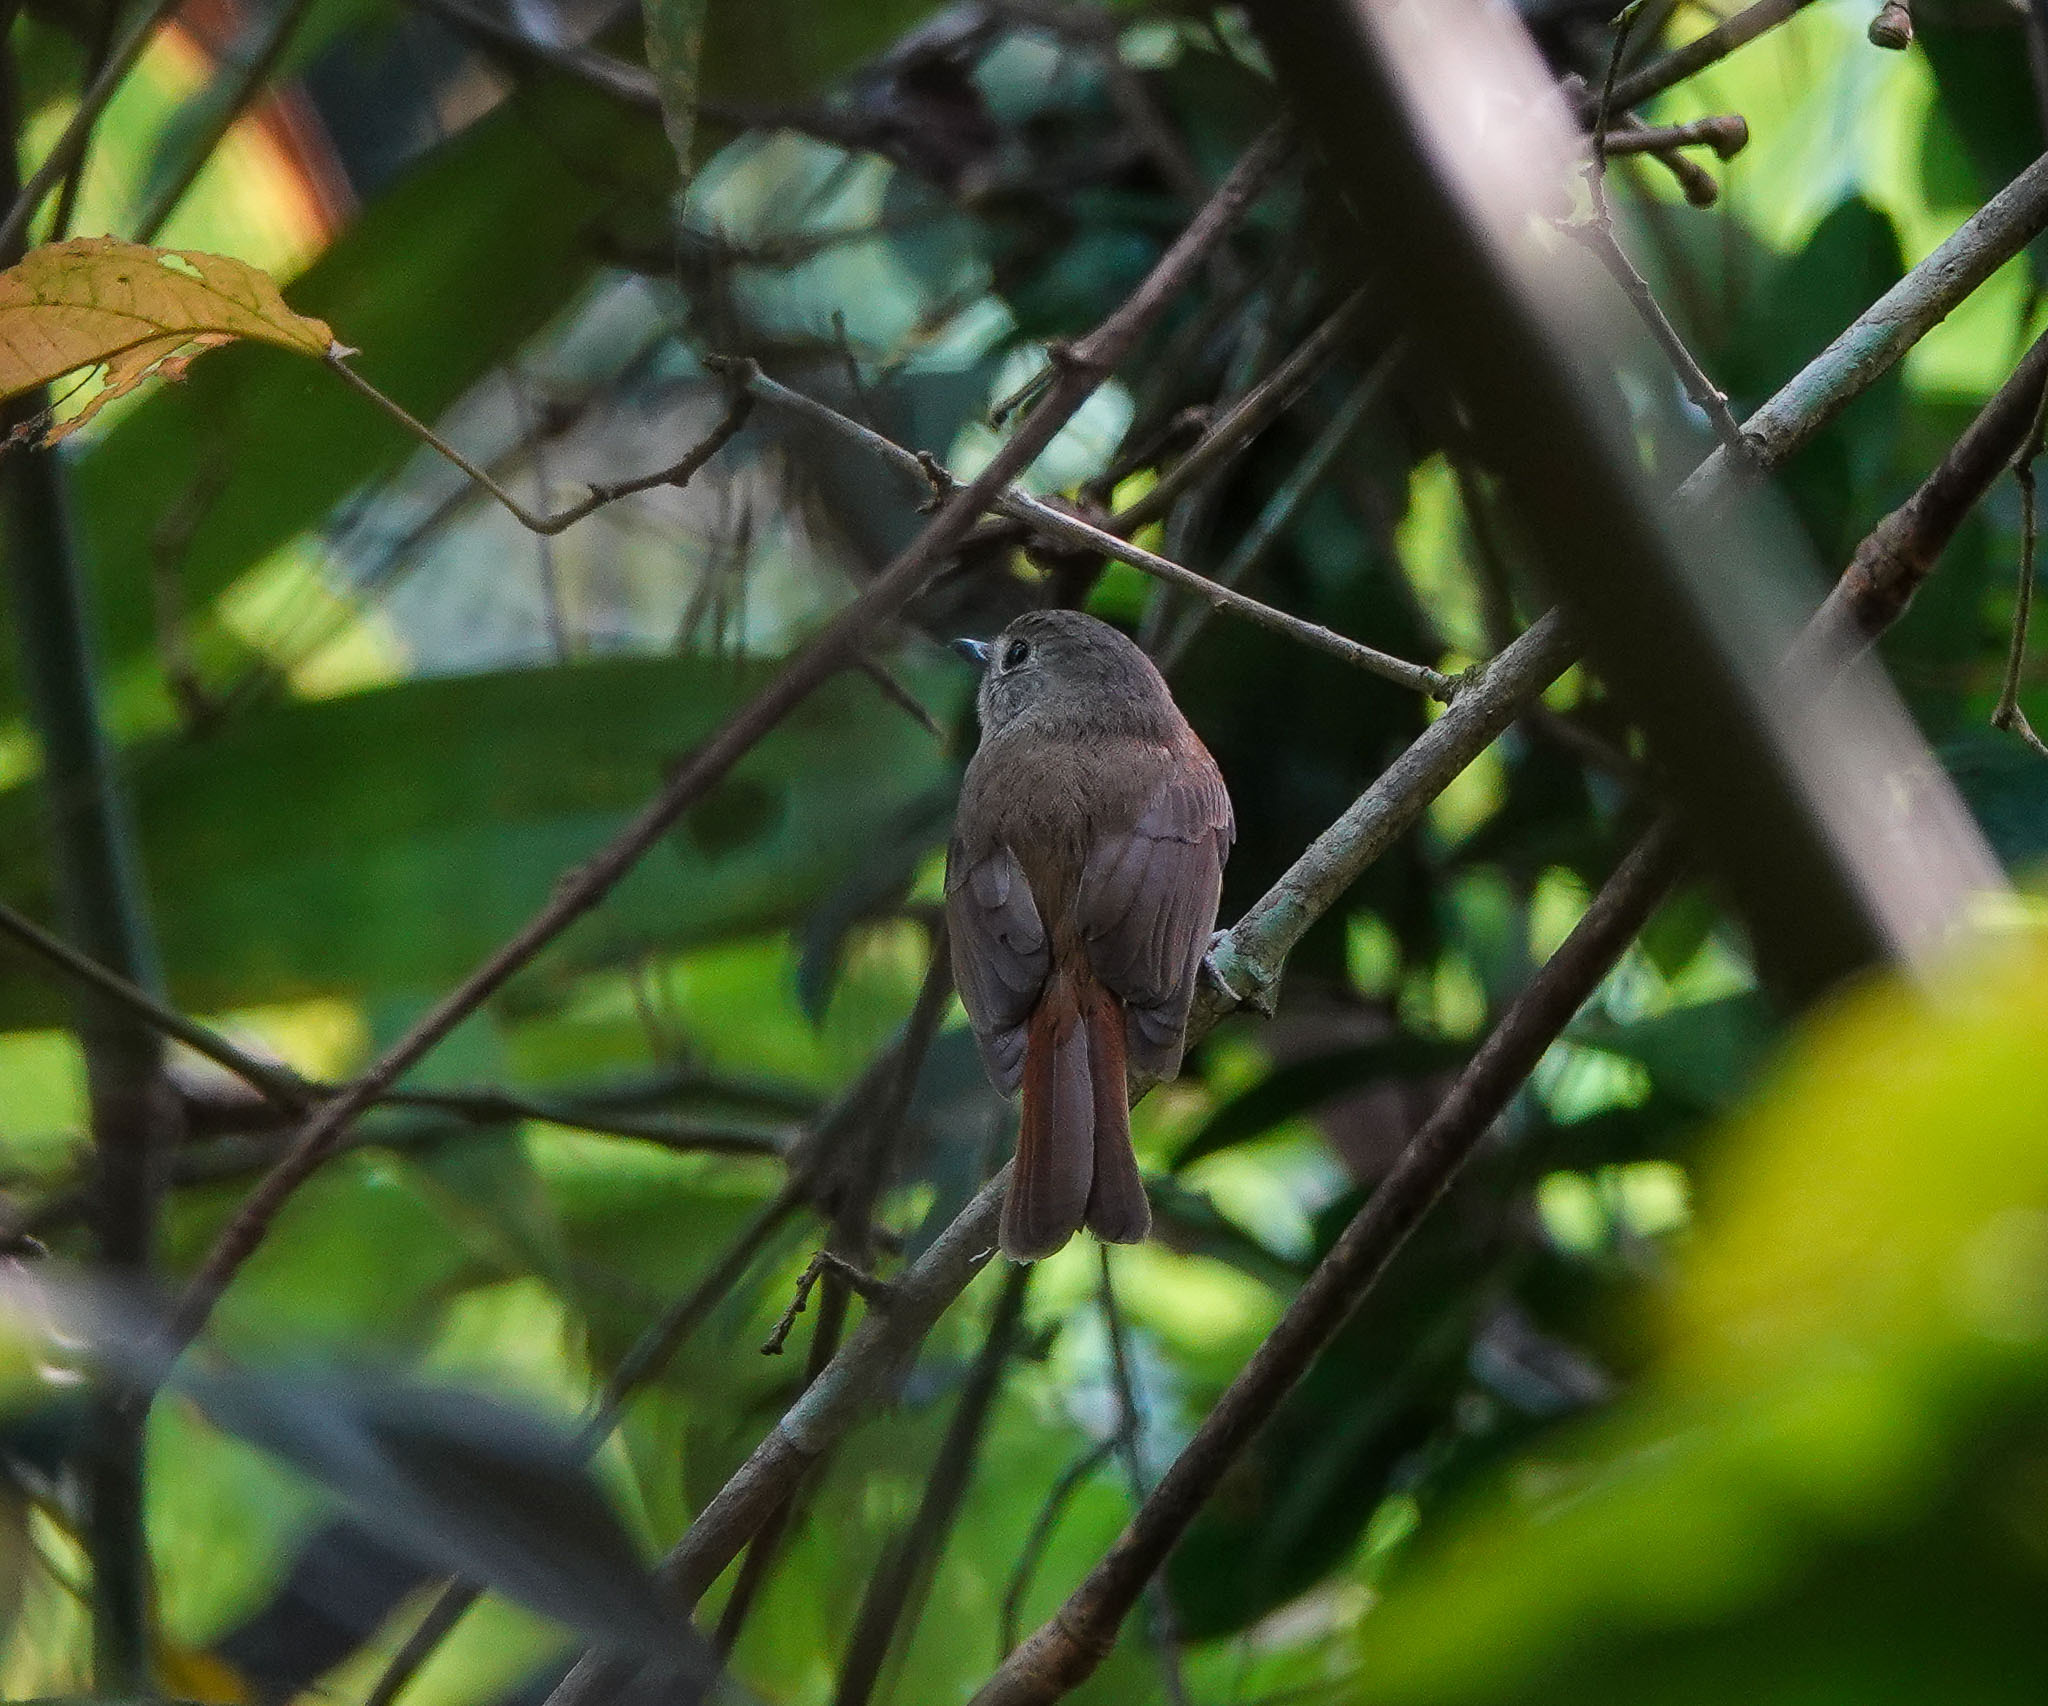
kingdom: Animalia
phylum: Chordata
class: Aves
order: Passeriformes
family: Muscicapidae
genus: Cyornis
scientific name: Cyornis poliogenys
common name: Pale-chinned blue flycatcher
